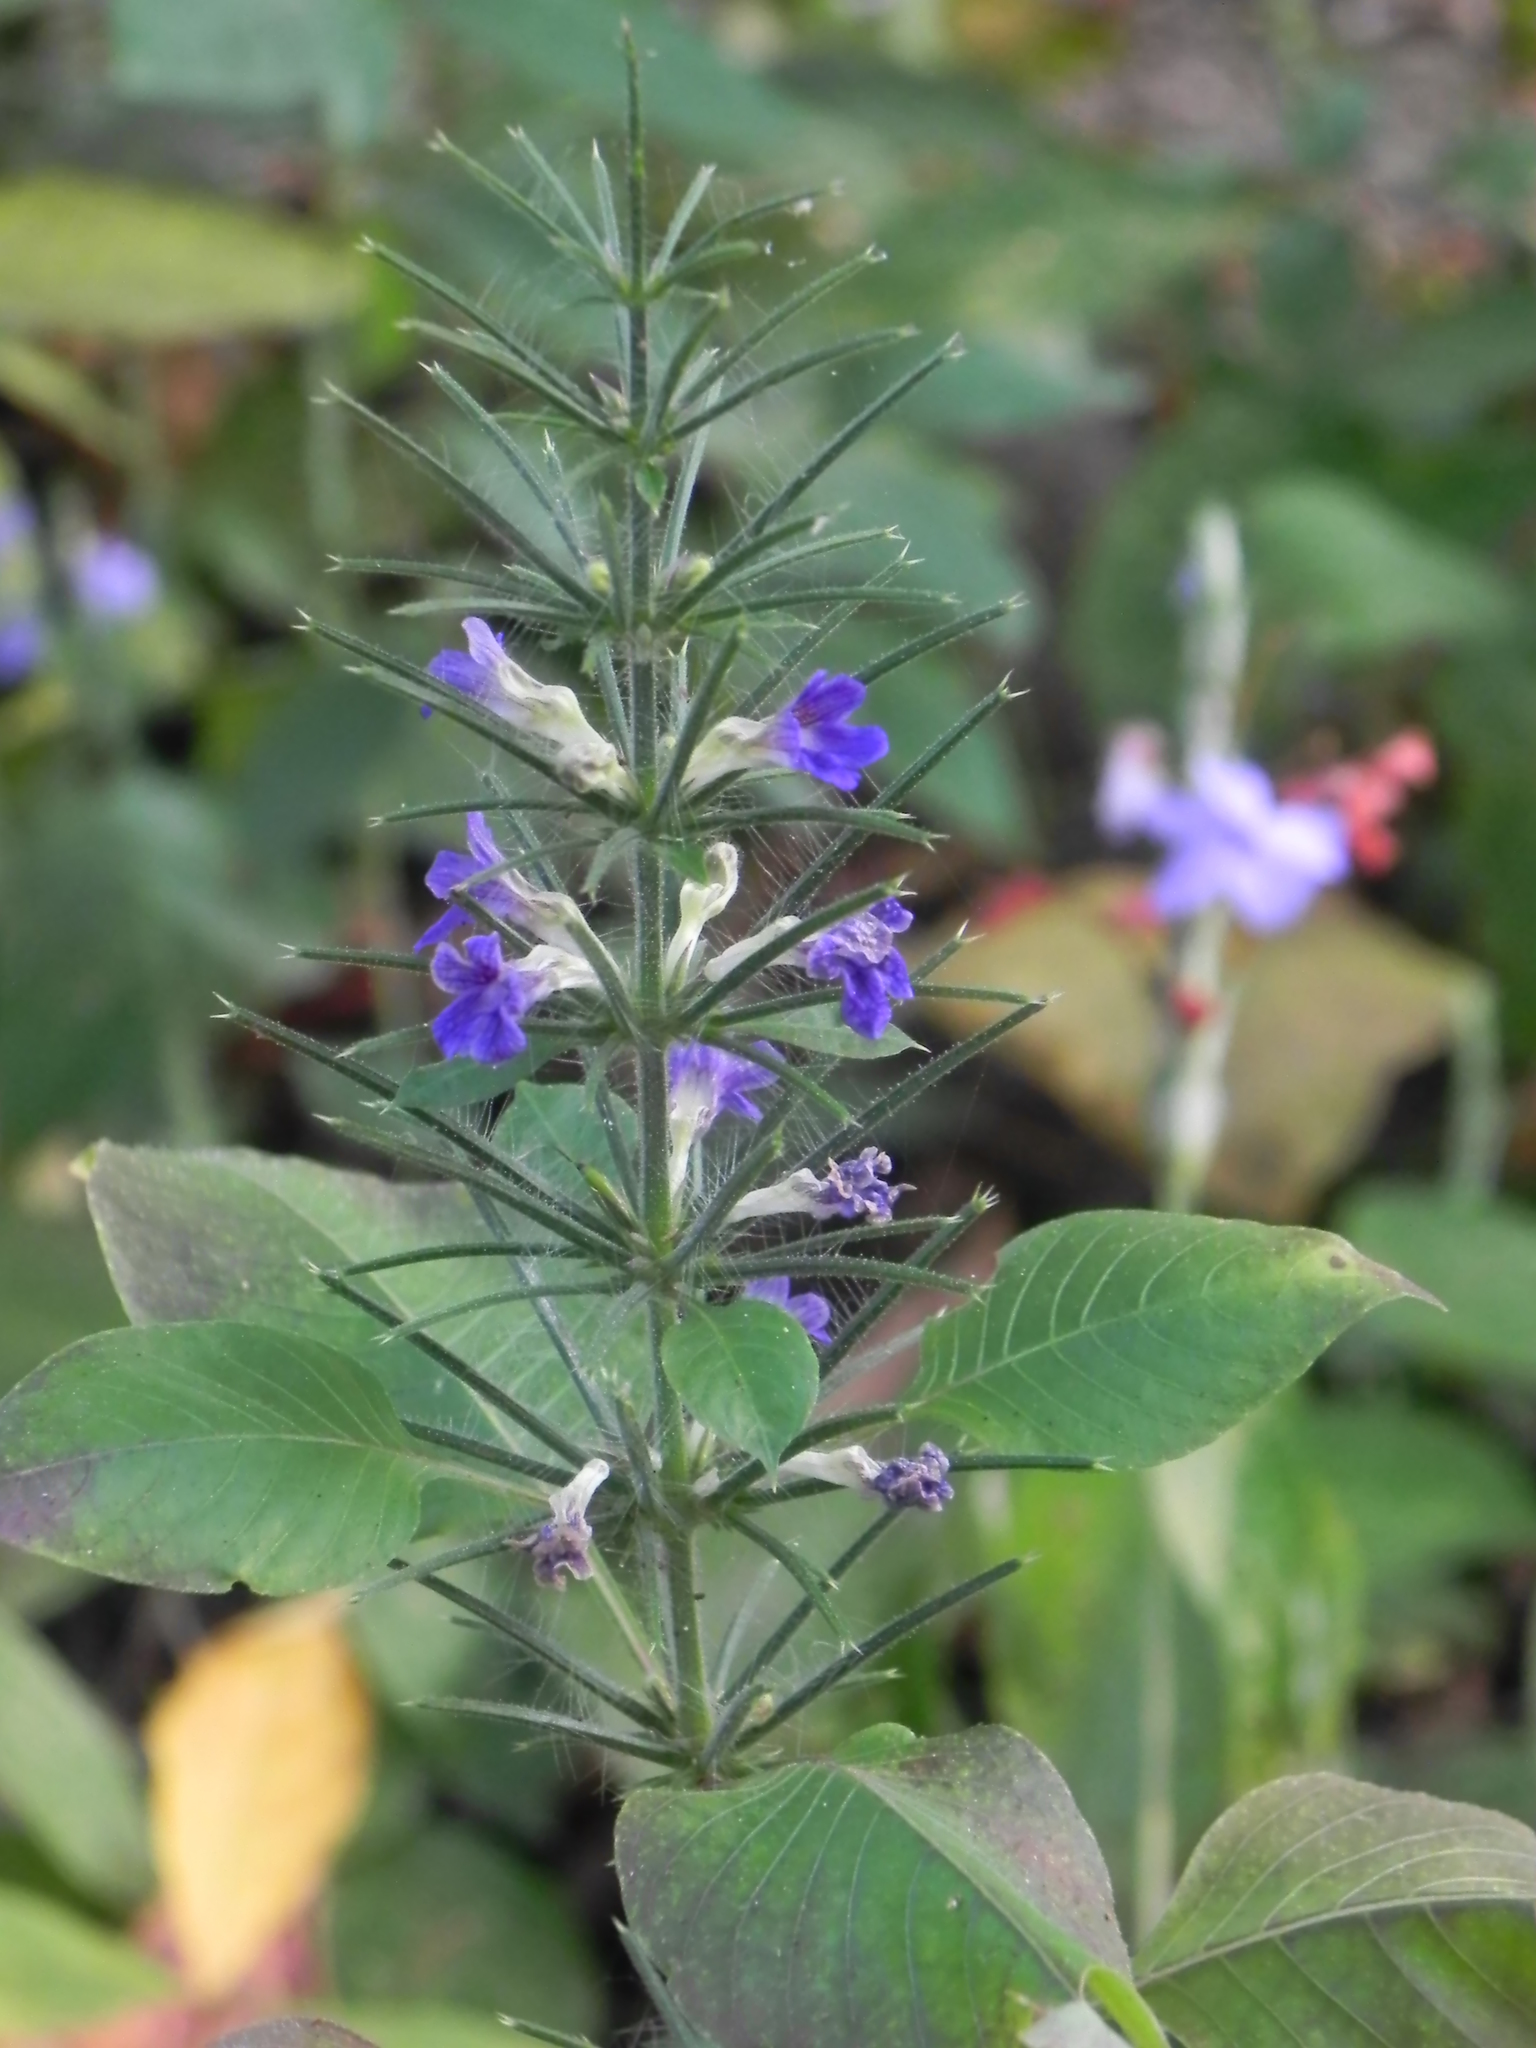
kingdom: Plantae
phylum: Tracheophyta
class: Magnoliopsida
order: Lamiales
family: Acanthaceae
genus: Haplanthodes
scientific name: Haplanthodes verticillatus
